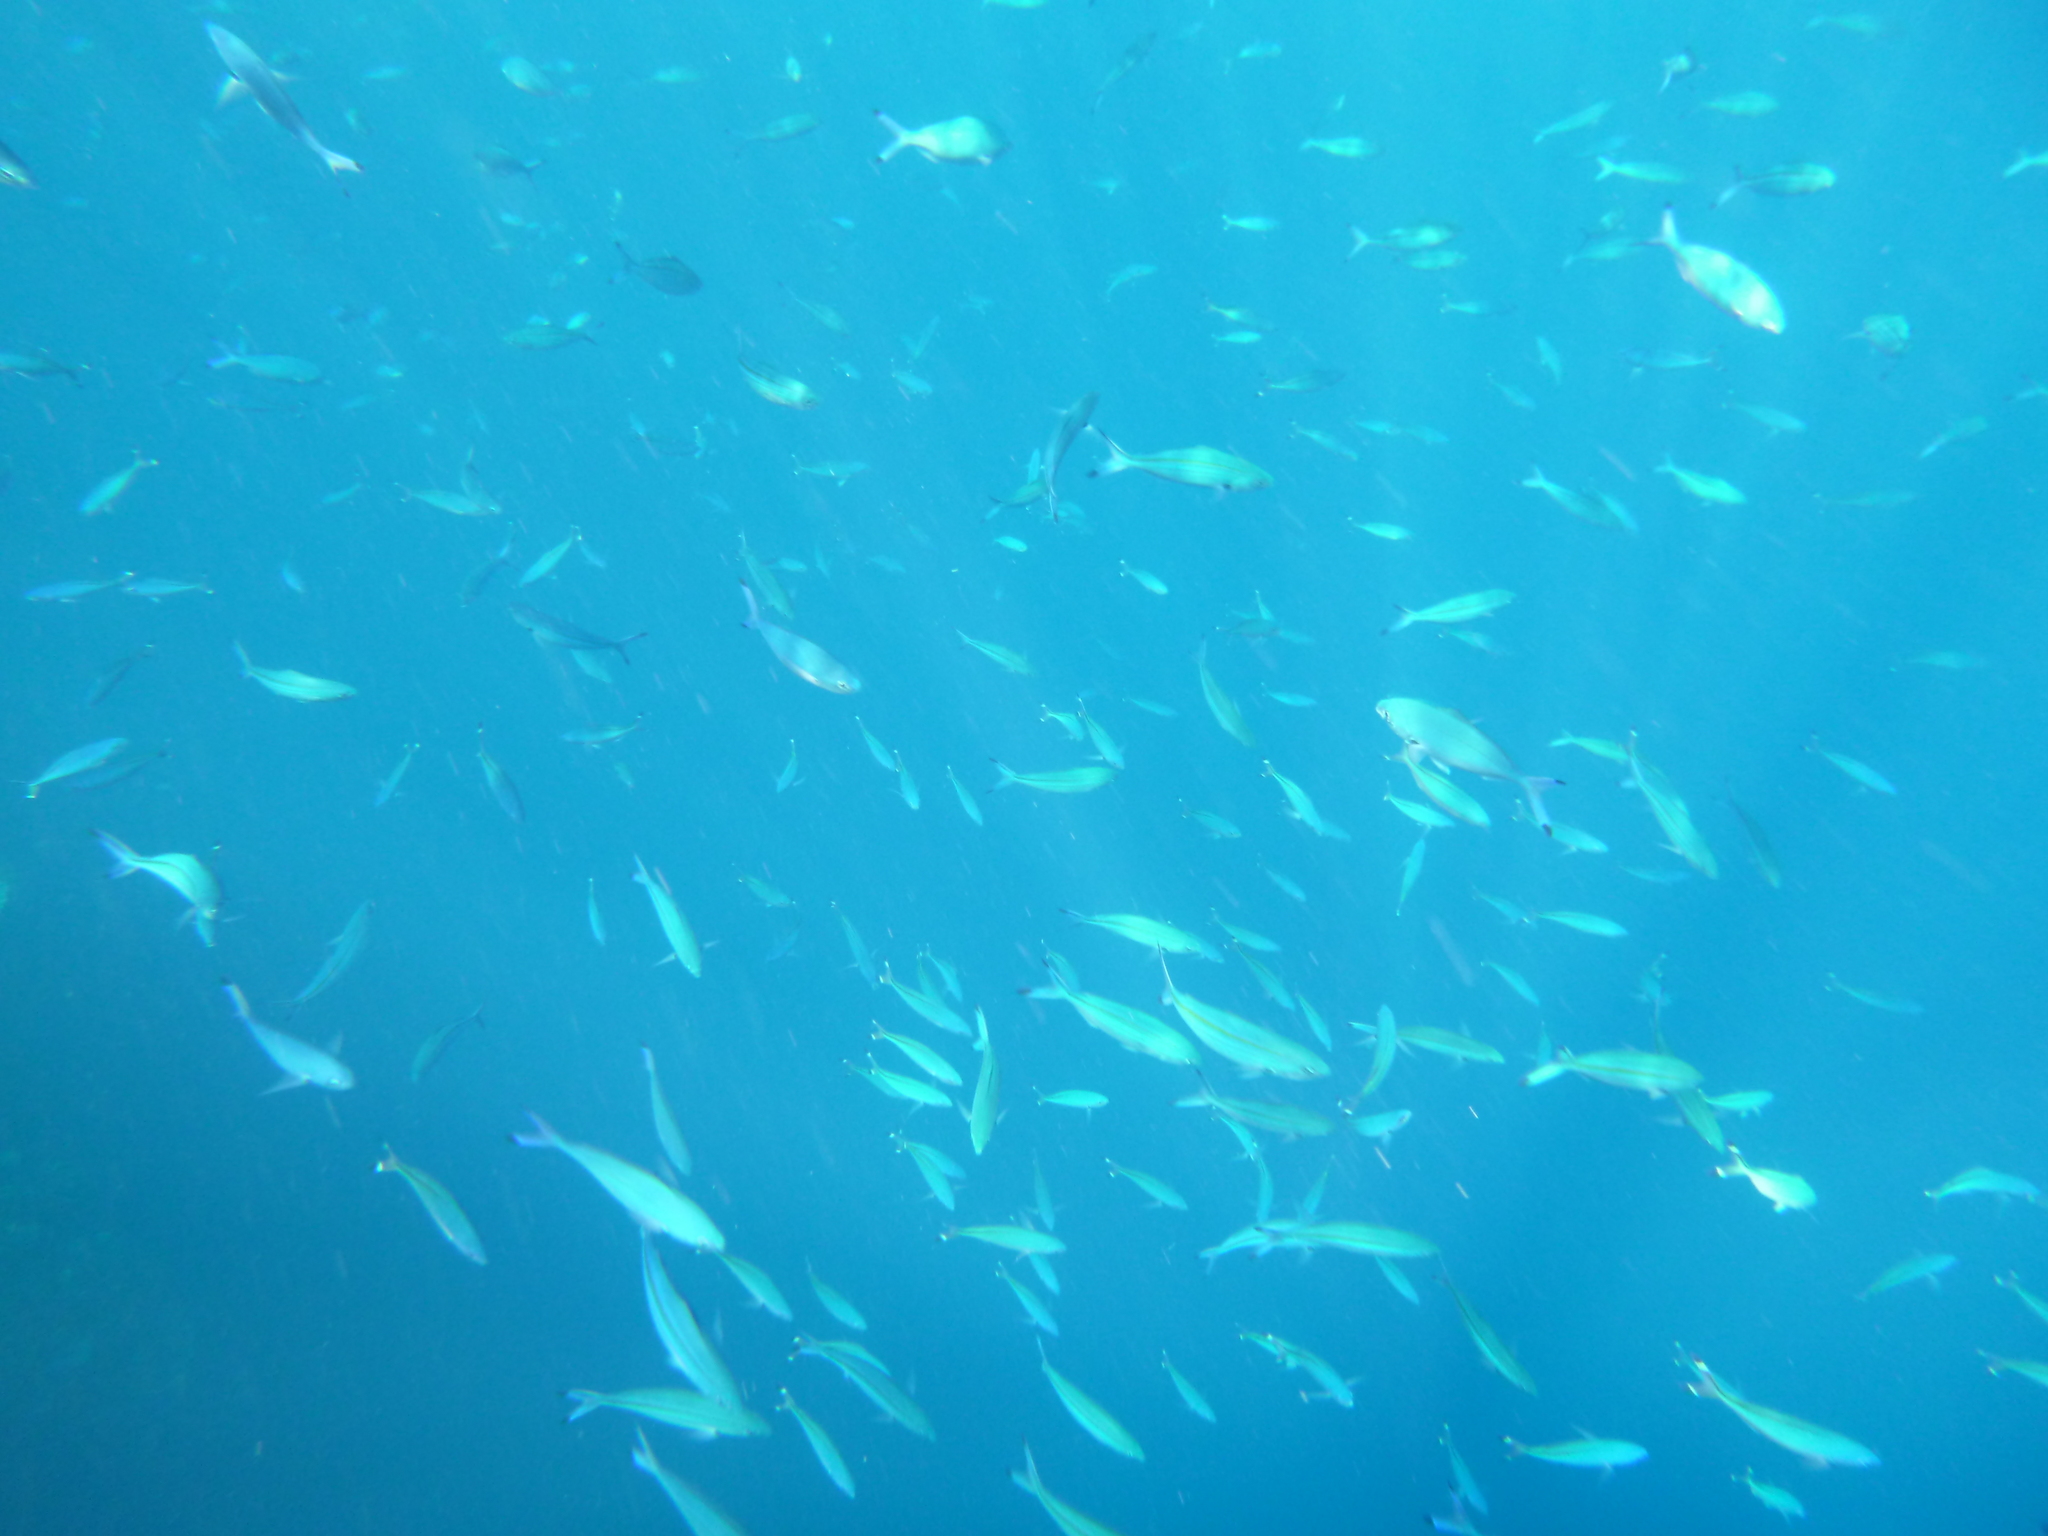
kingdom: Animalia
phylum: Chordata
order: Perciformes
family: Caesionidae
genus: Pterocaesio
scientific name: Pterocaesio chrysozona
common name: Goldband fusilier
